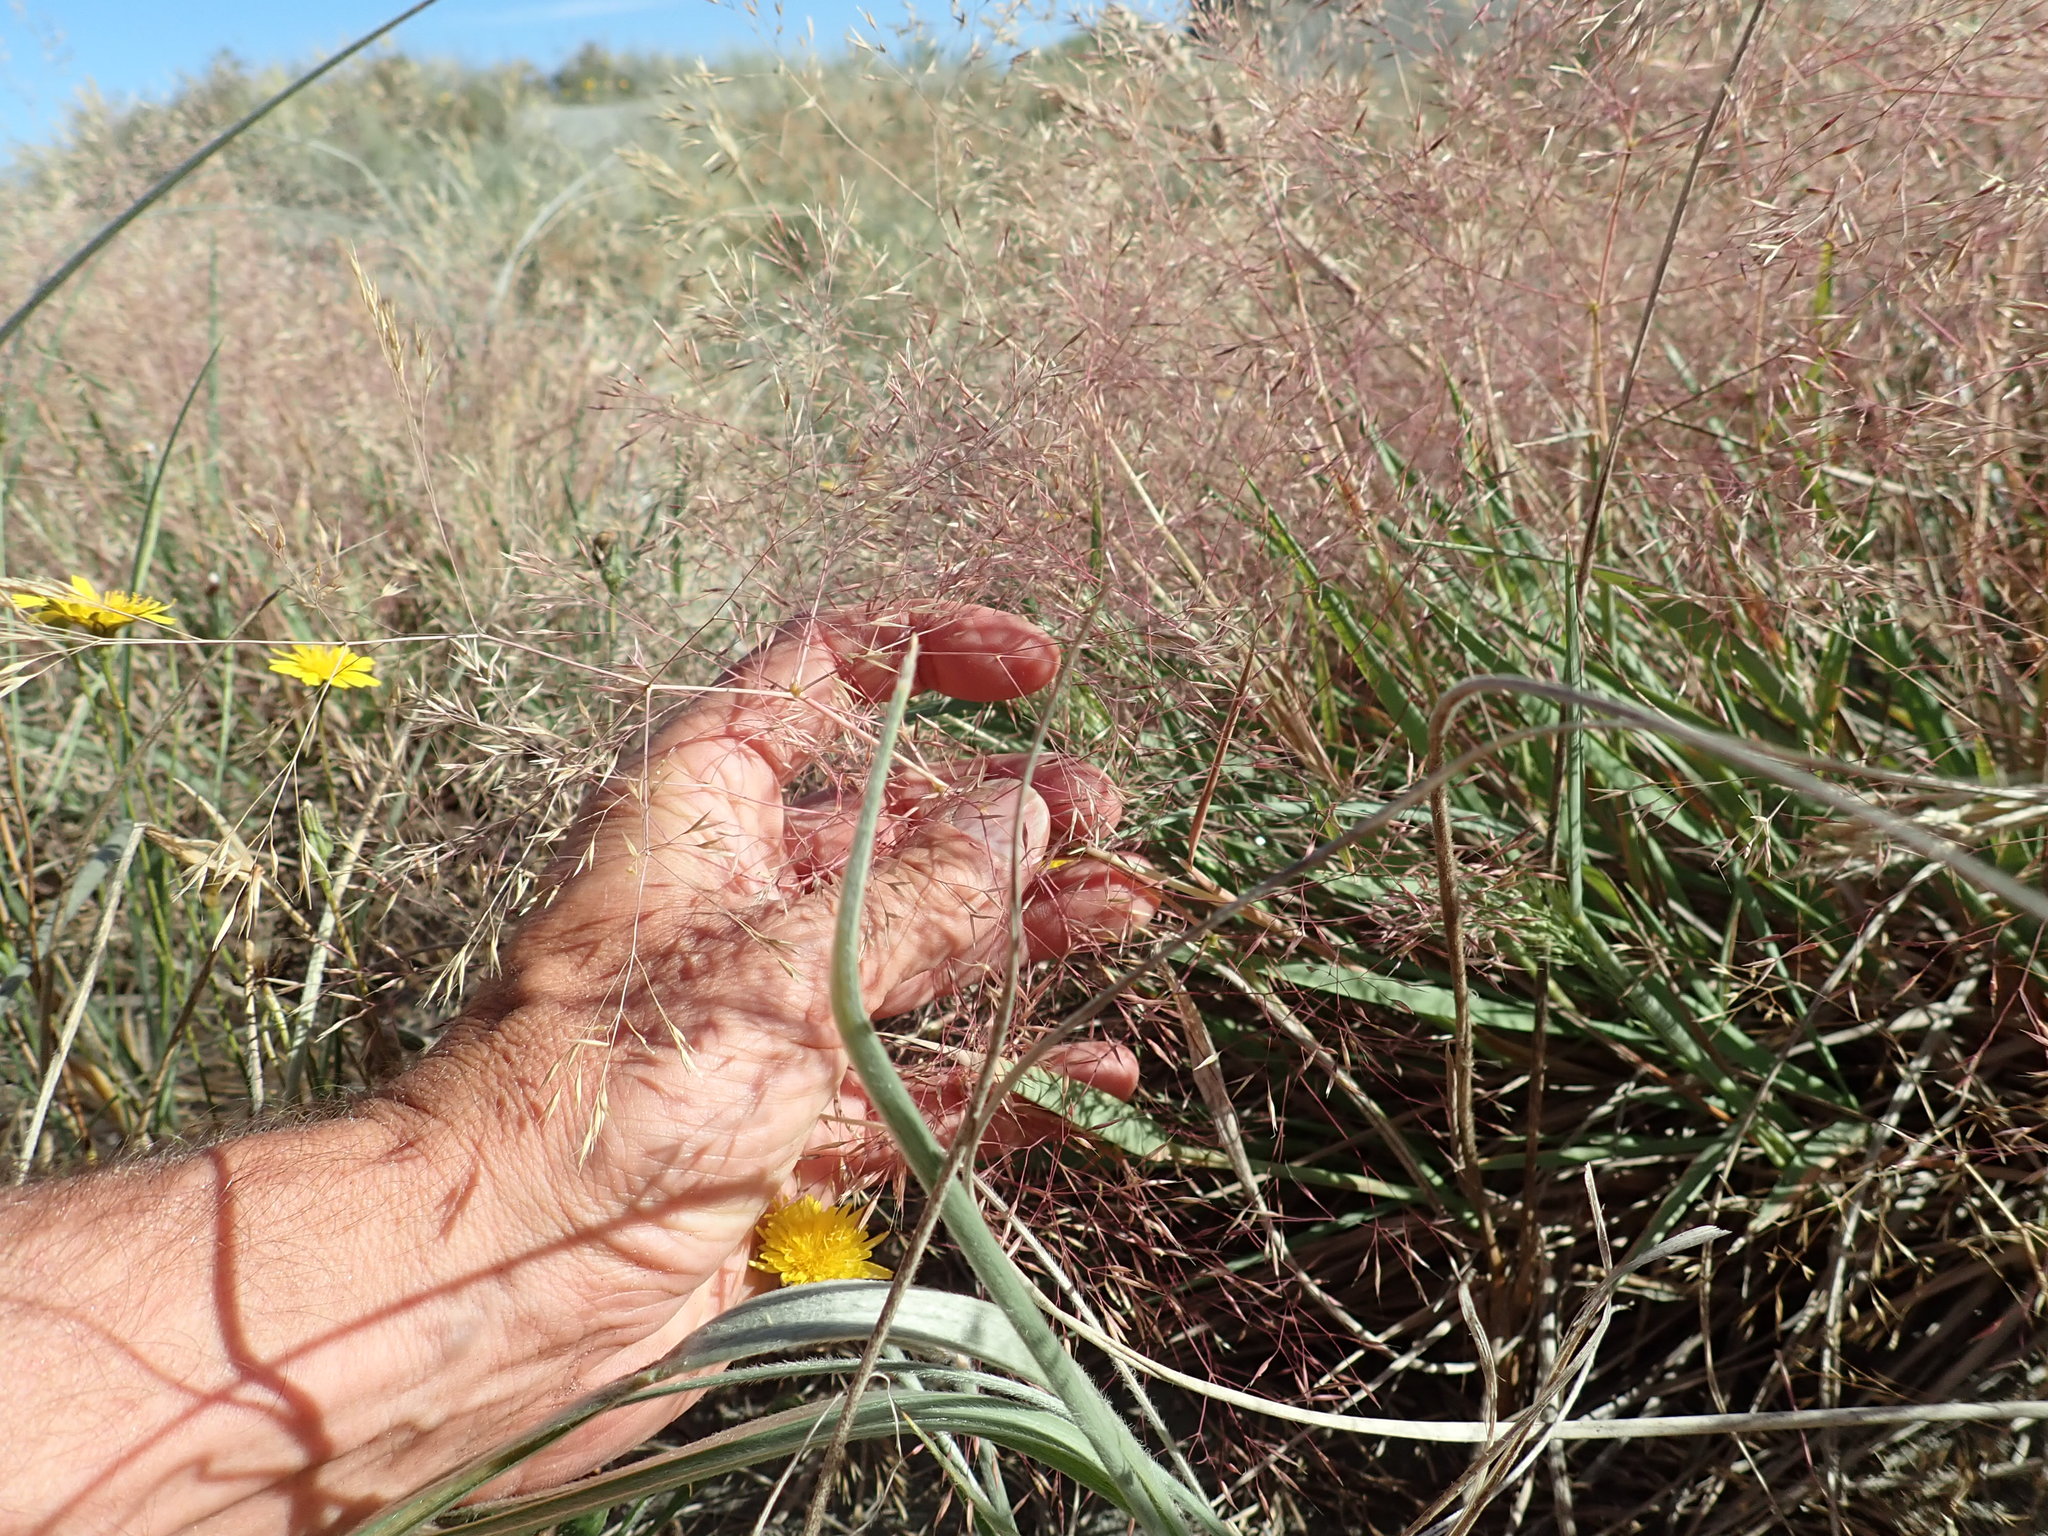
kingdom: Plantae
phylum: Tracheophyta
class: Liliopsida
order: Poales
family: Poaceae
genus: Lachnagrostis
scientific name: Lachnagrostis billardierei
